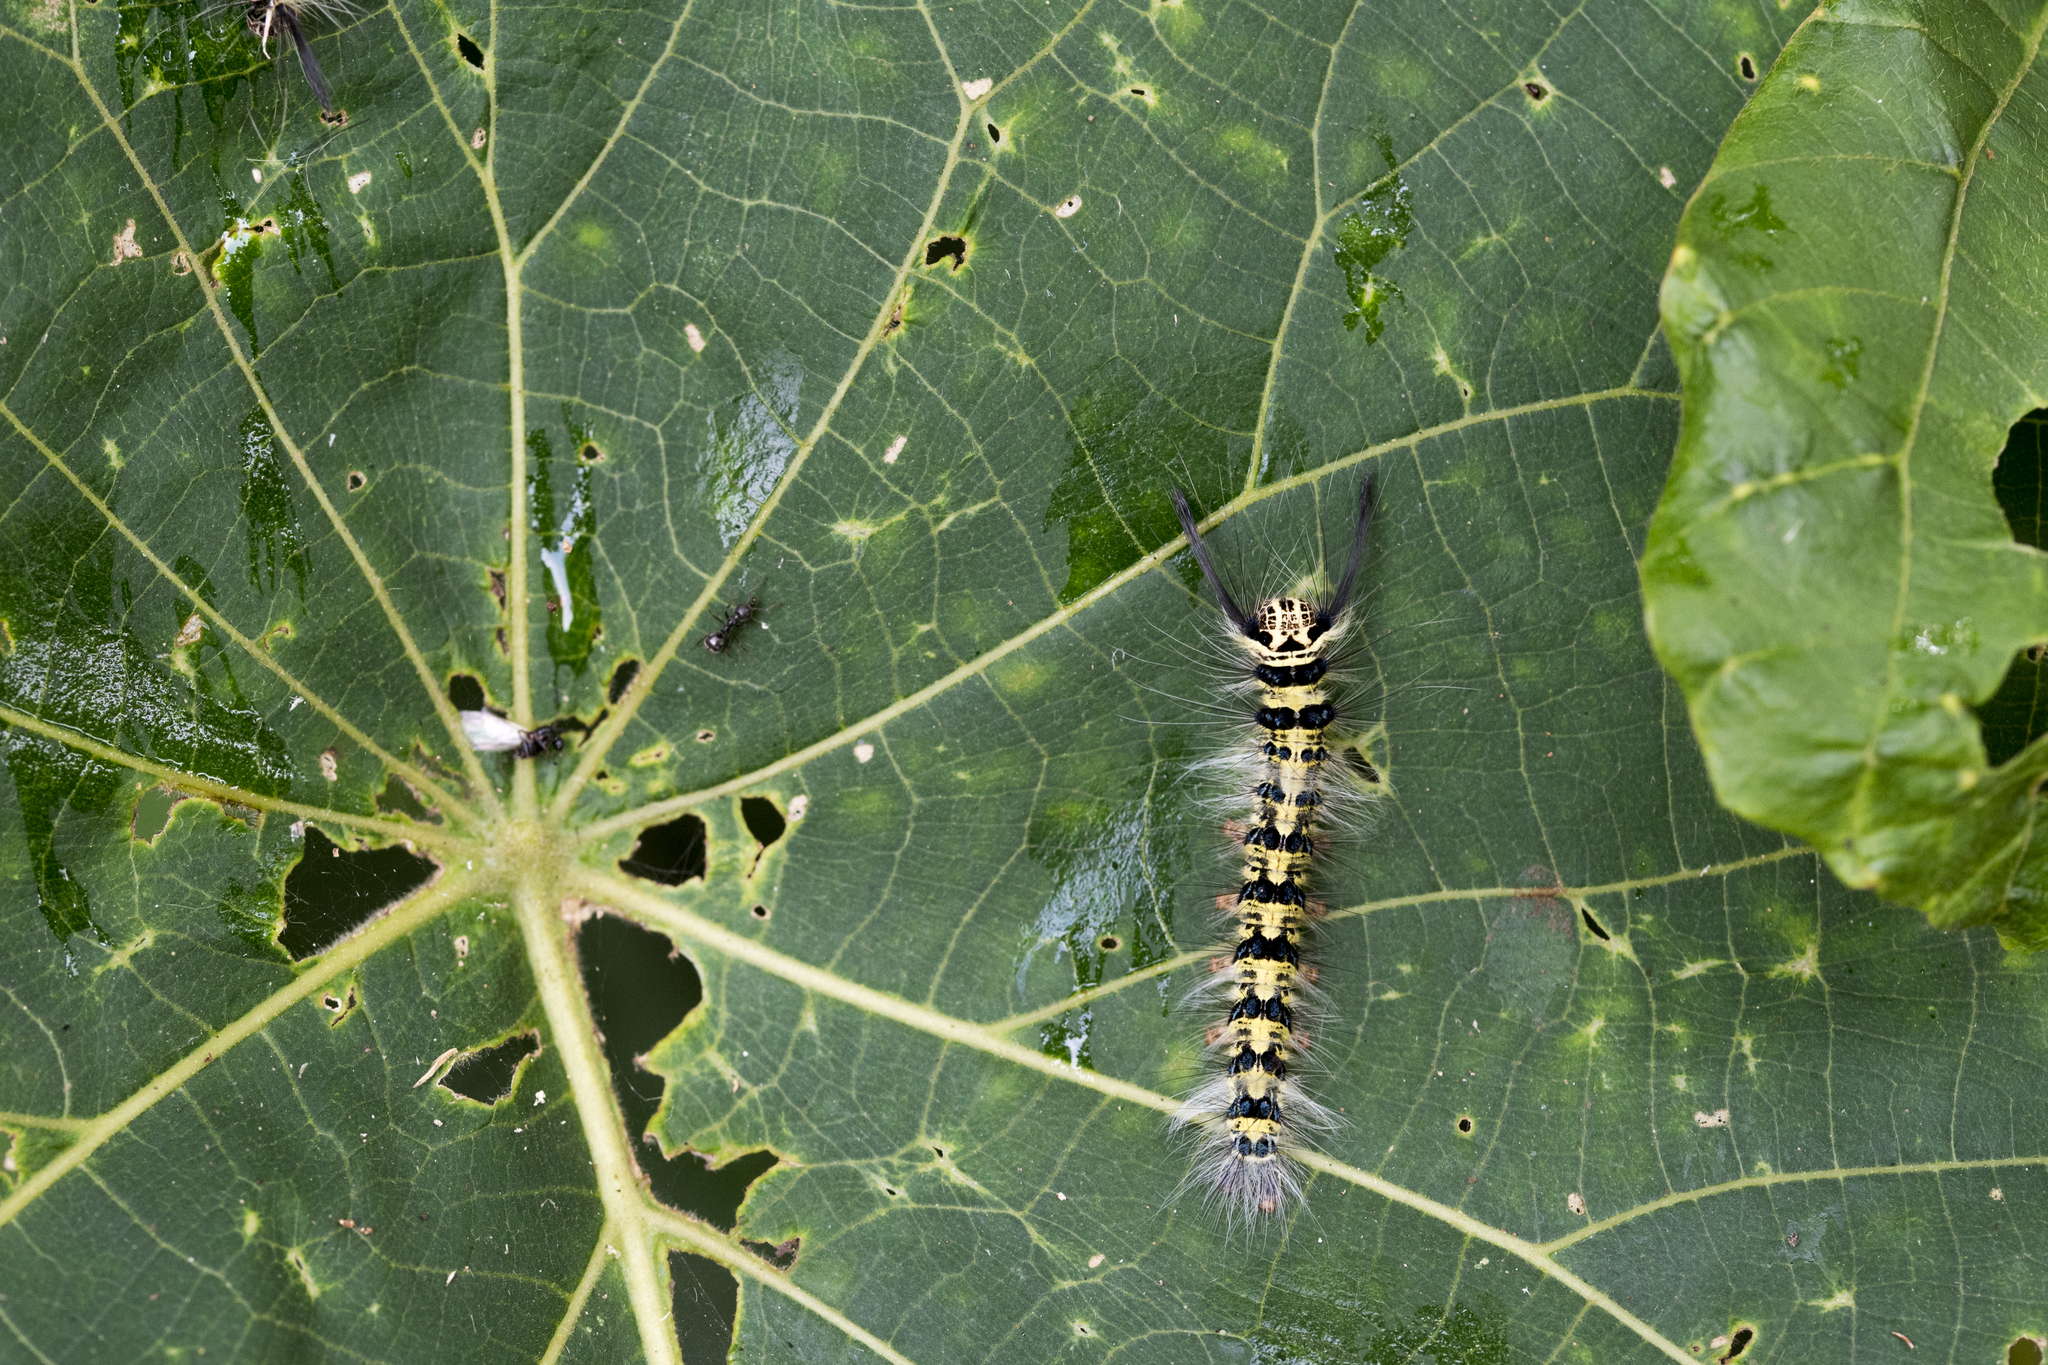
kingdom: Animalia
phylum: Arthropoda
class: Insecta
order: Lepidoptera
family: Lasiocampidae
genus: Trabala
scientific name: Trabala vishnou
